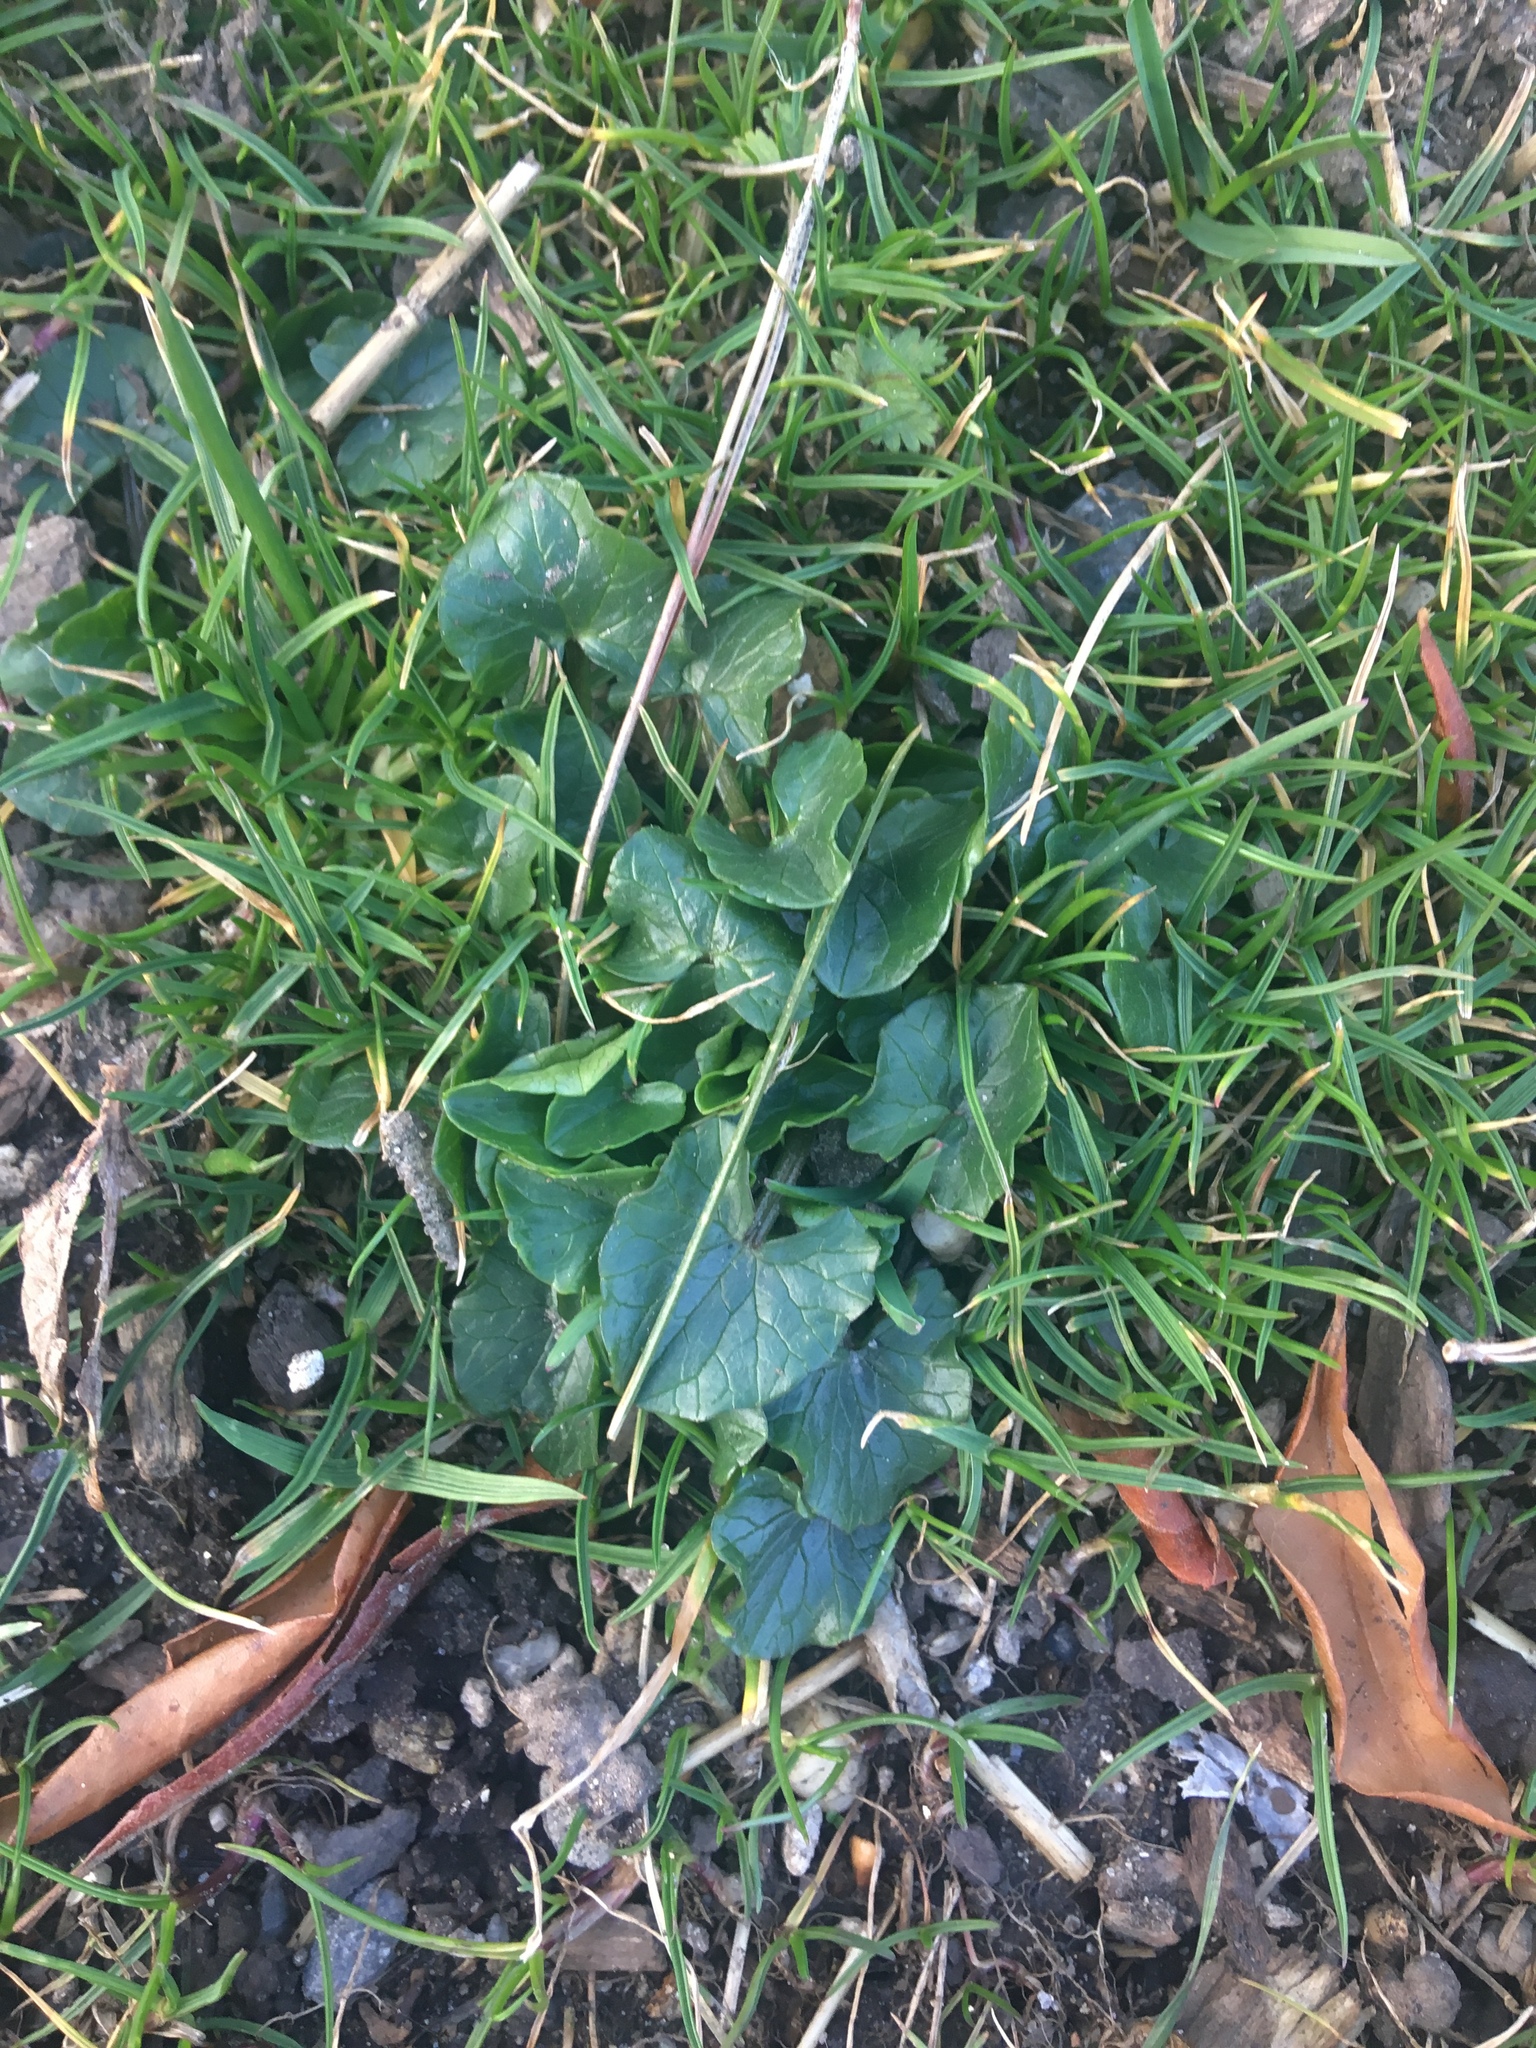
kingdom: Plantae
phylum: Tracheophyta
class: Magnoliopsida
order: Ranunculales
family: Ranunculaceae
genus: Ficaria
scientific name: Ficaria verna
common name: Lesser celandine
